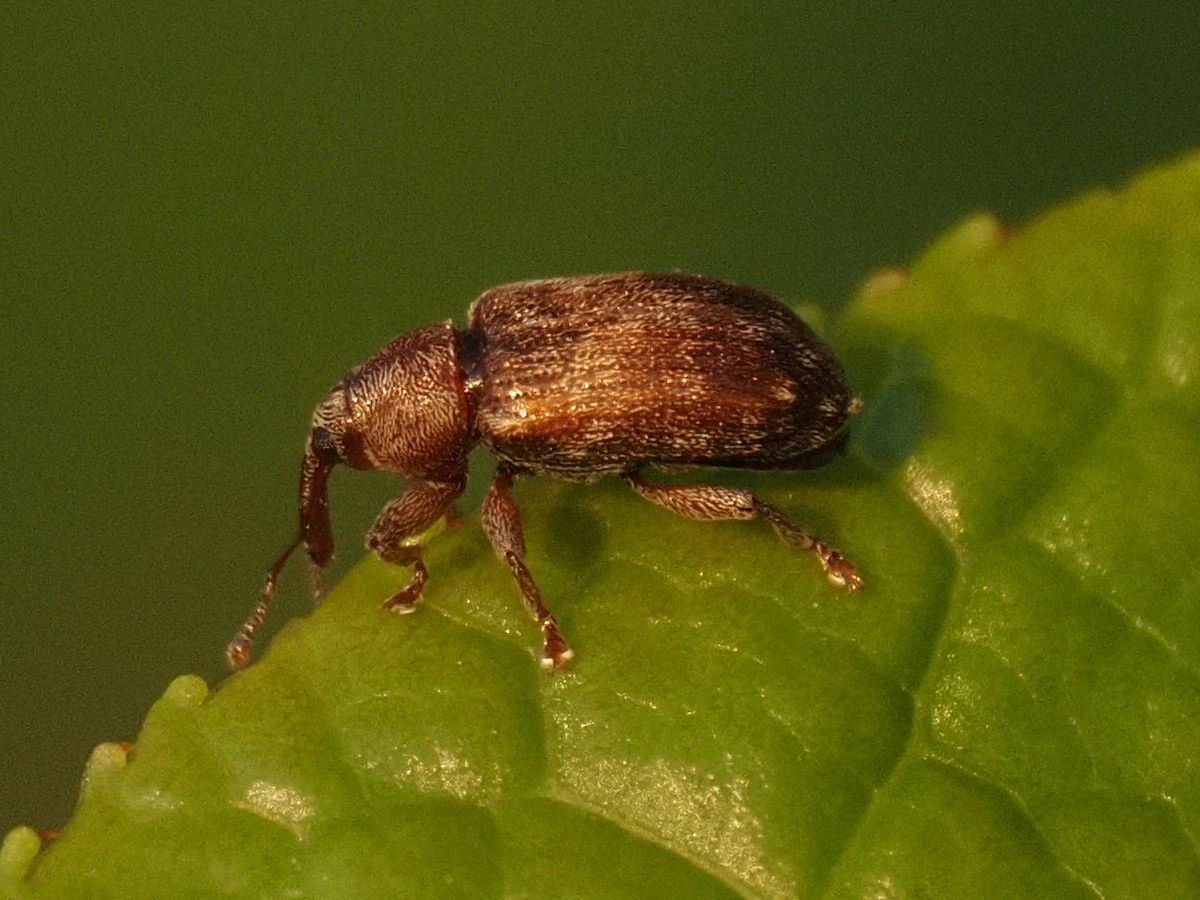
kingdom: Animalia
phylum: Arthropoda
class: Insecta
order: Coleoptera
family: Curculionidae
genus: Lignyodes
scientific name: Lignyodes enucleator
